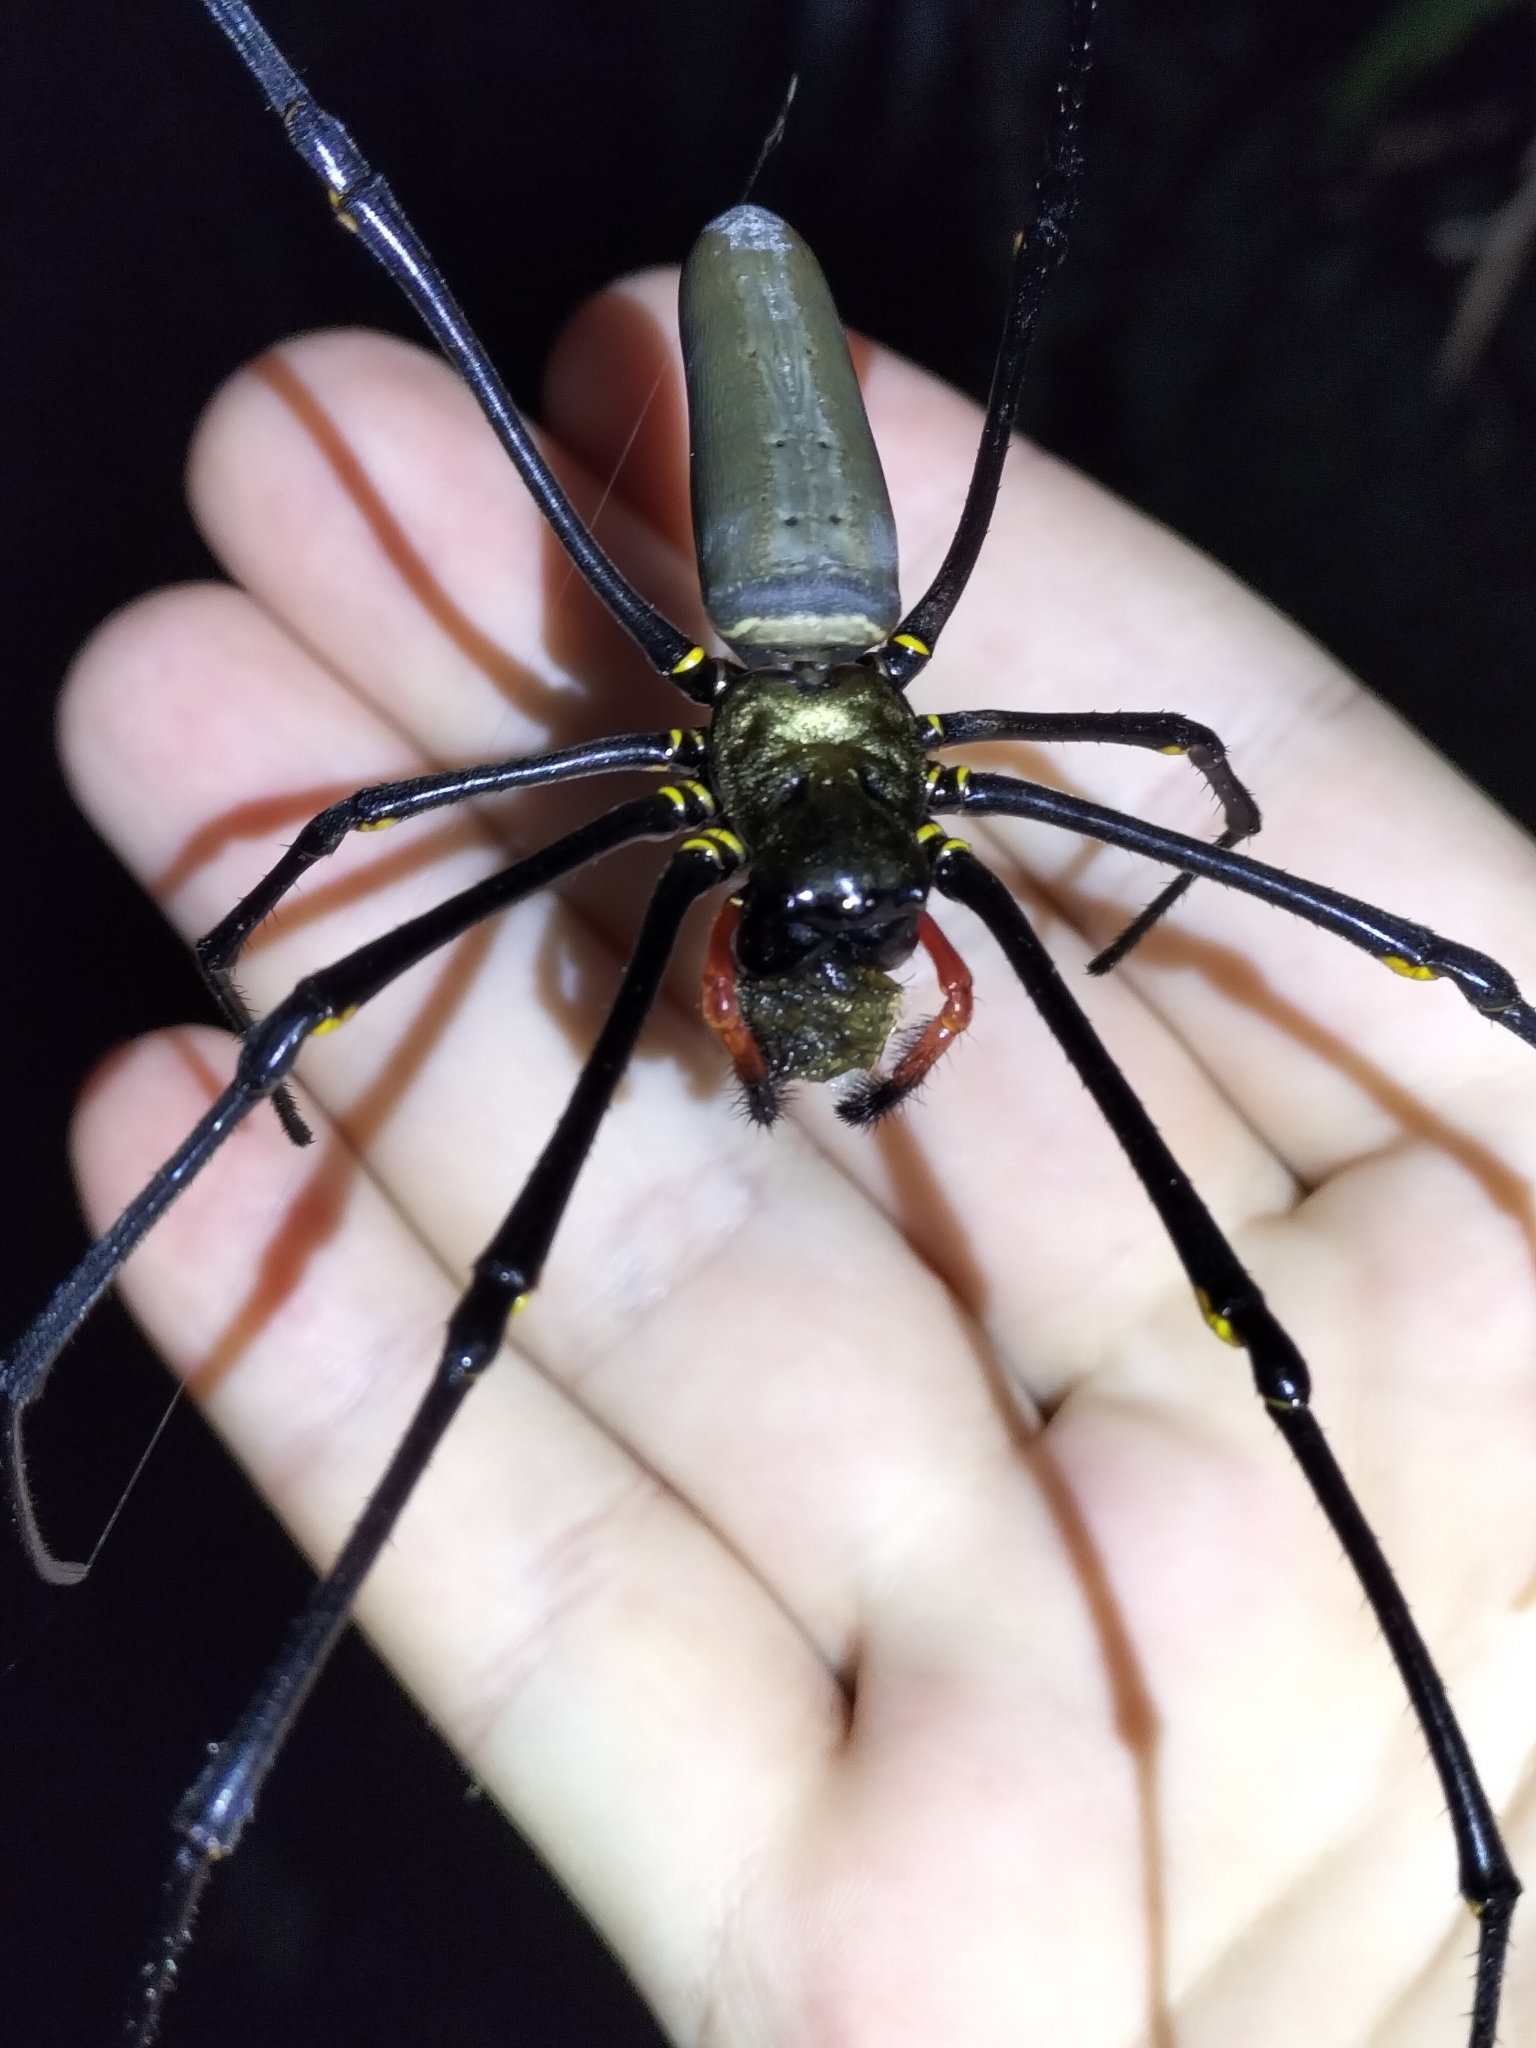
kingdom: Animalia
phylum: Arthropoda
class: Arachnida
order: Araneae
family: Araneidae
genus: Nephila
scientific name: Nephila pilipes
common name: Giant golden orb weaver
